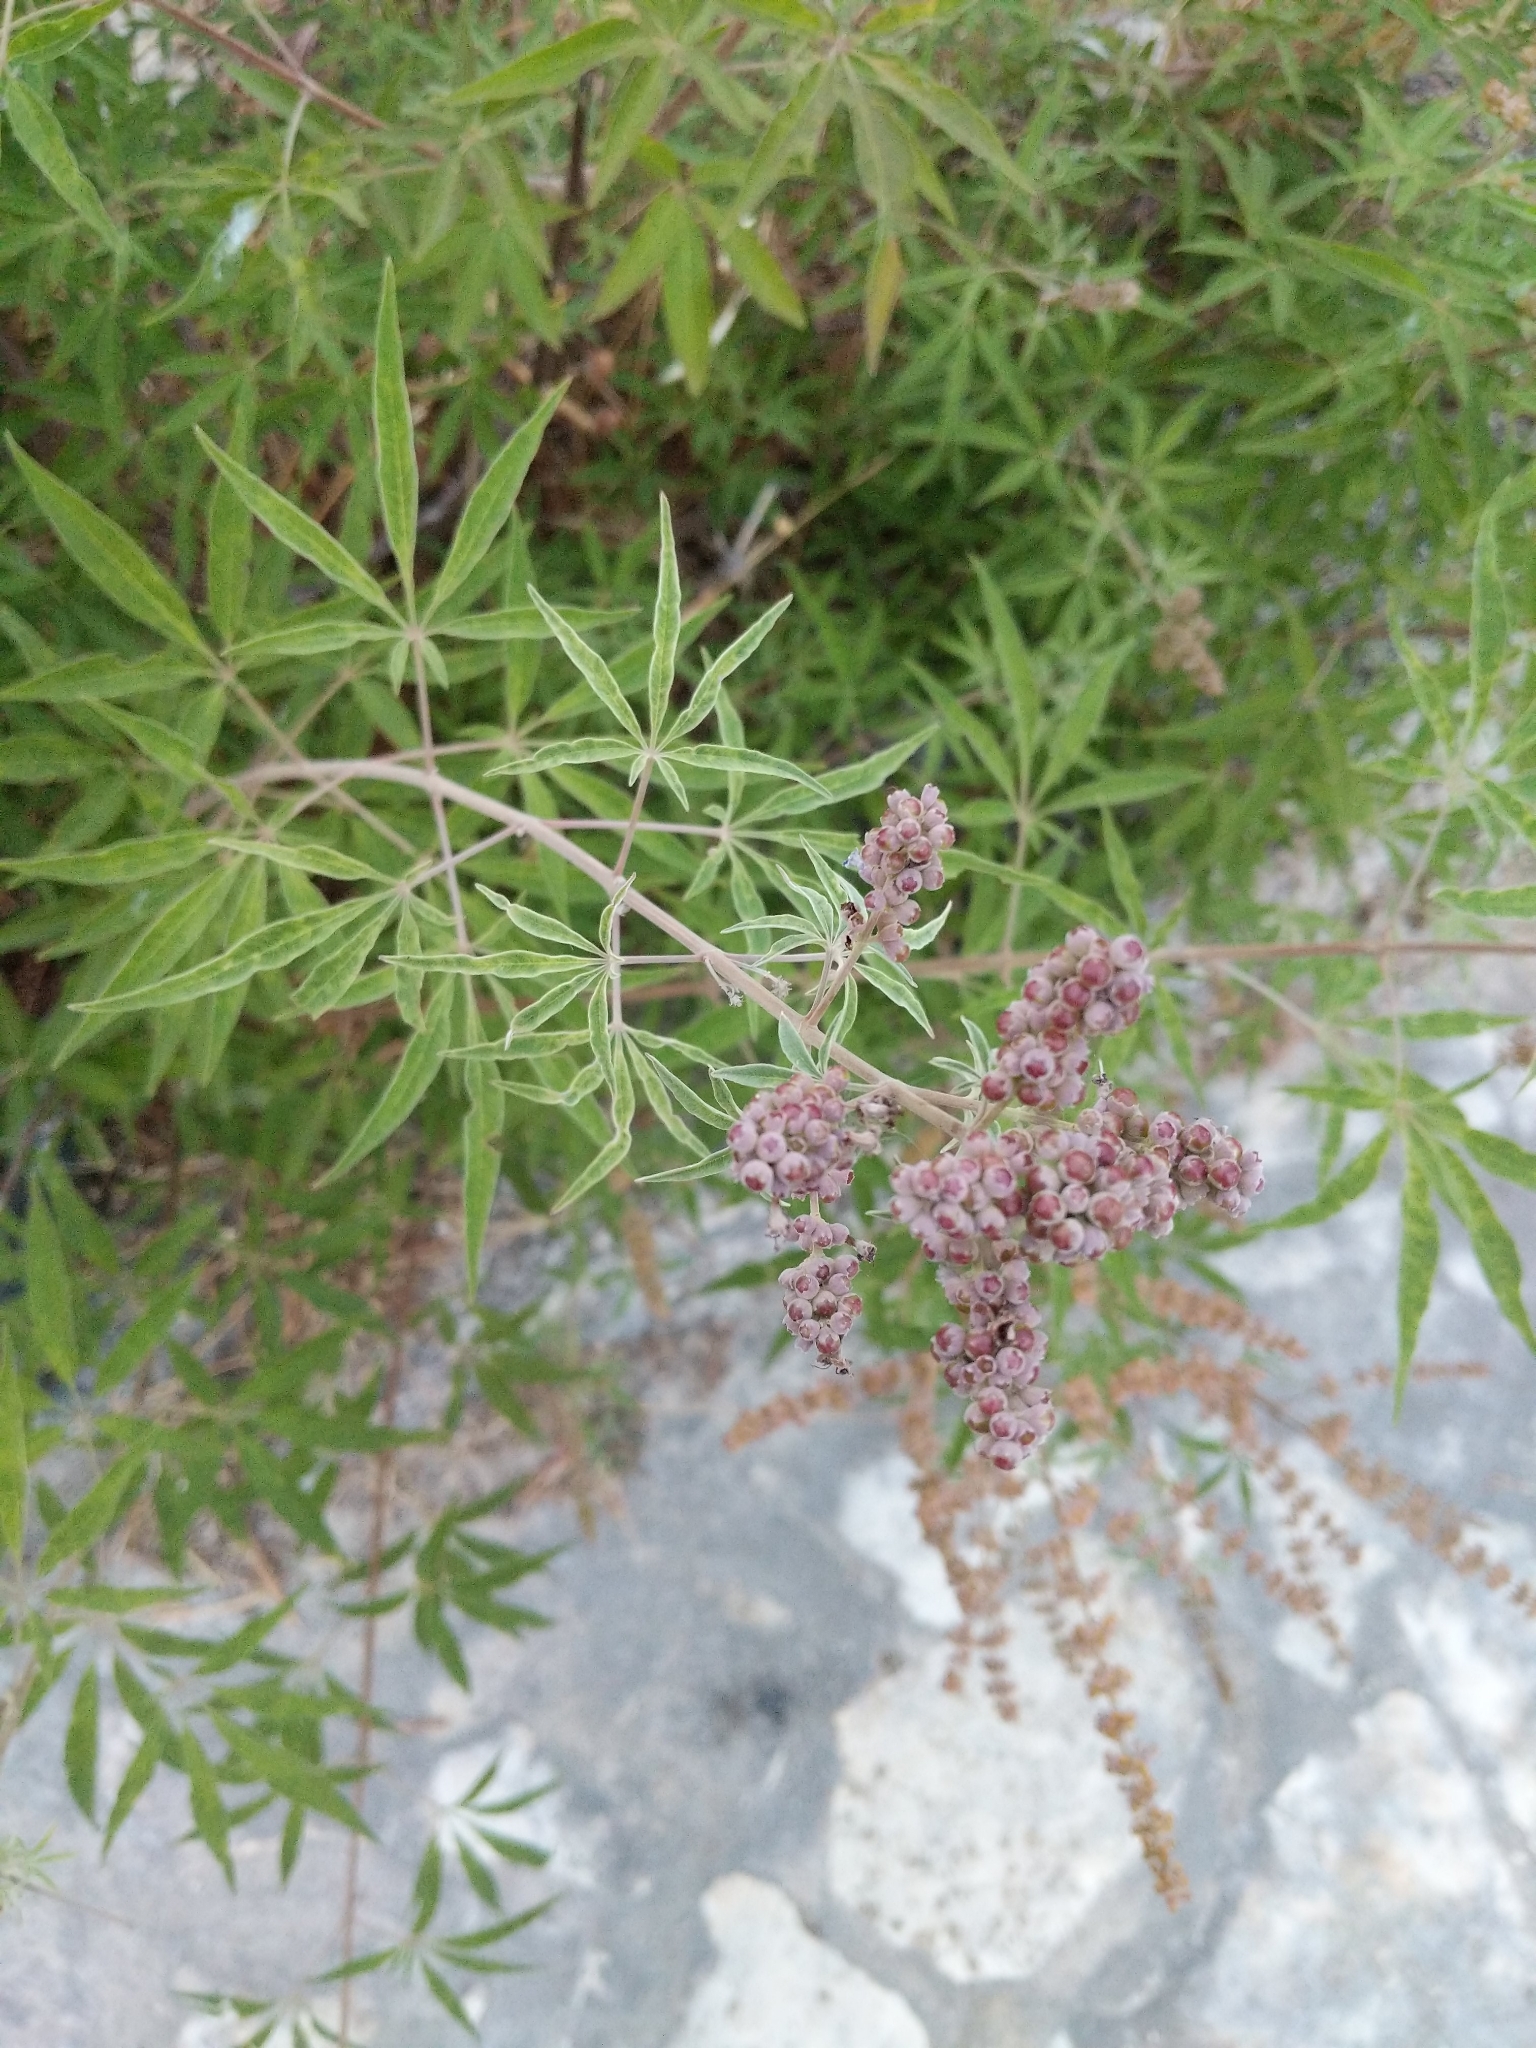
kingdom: Plantae
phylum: Tracheophyta
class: Magnoliopsida
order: Lamiales
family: Lamiaceae
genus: Vitex
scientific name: Vitex agnus-castus
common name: Chasteberry
